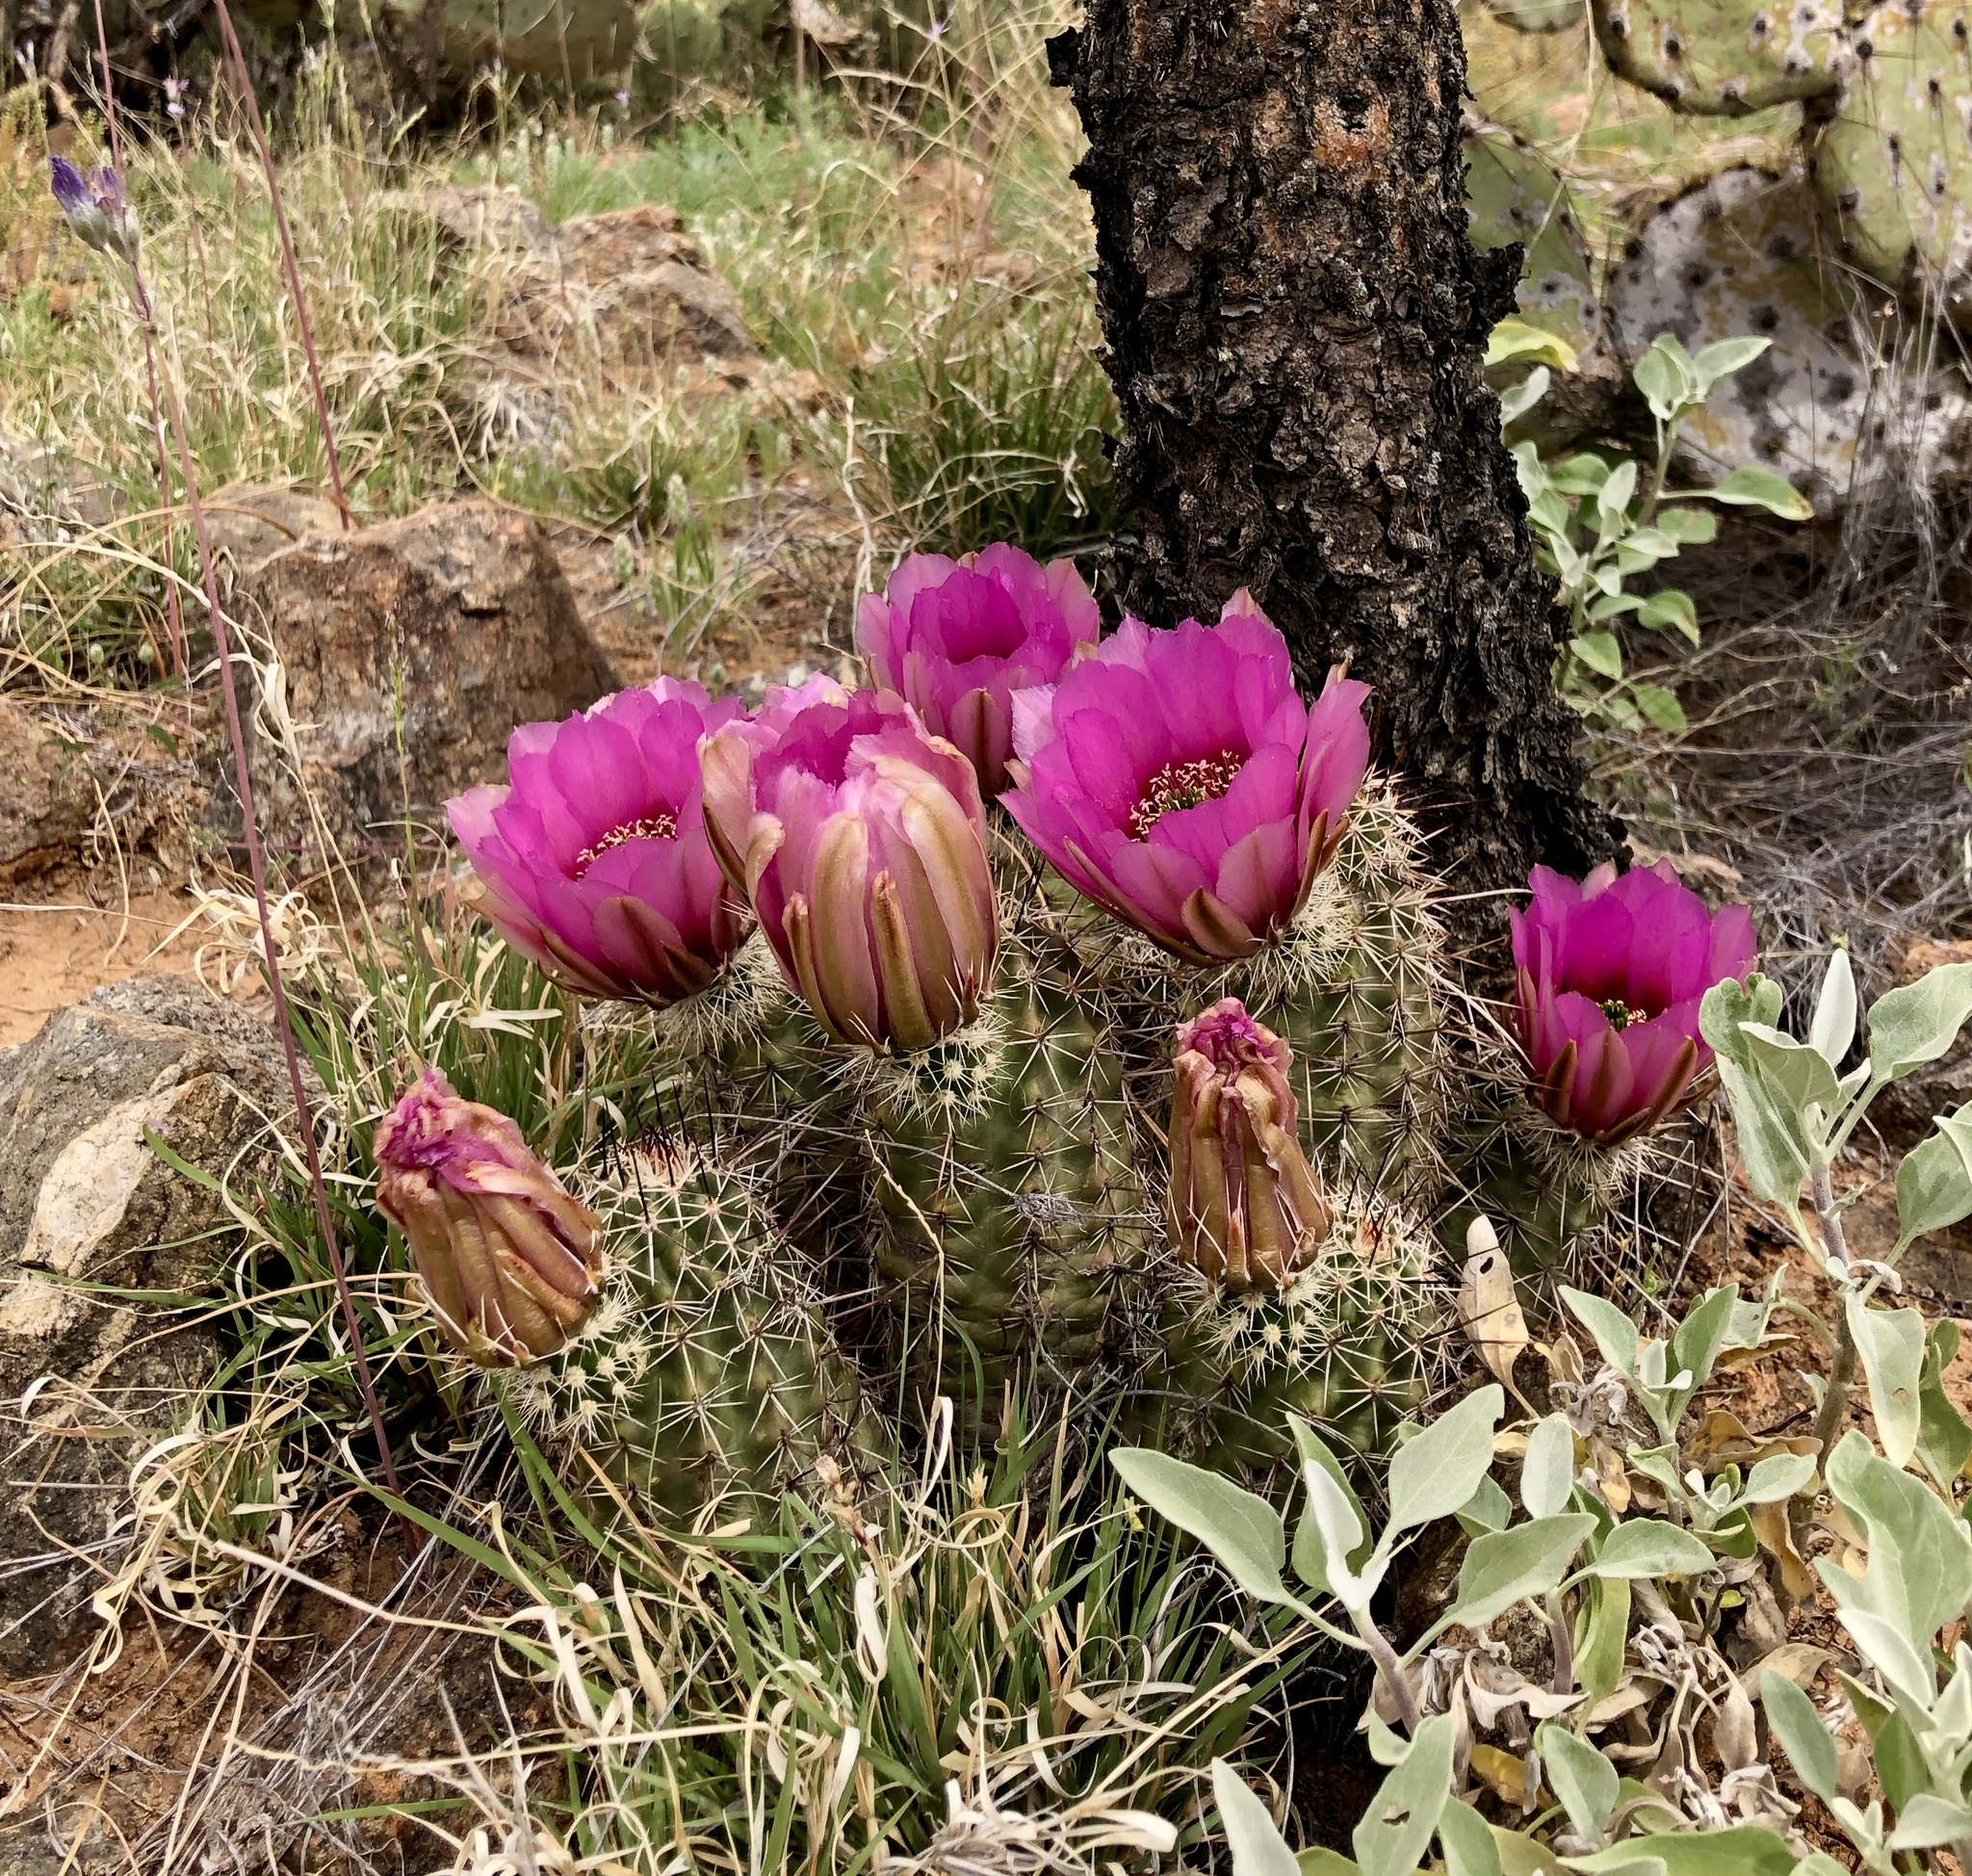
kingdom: Plantae
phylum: Tracheophyta
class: Magnoliopsida
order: Caryophyllales
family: Cactaceae
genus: Echinocereus
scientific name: Echinocereus fasciculatus
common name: Bundle hedgehog
